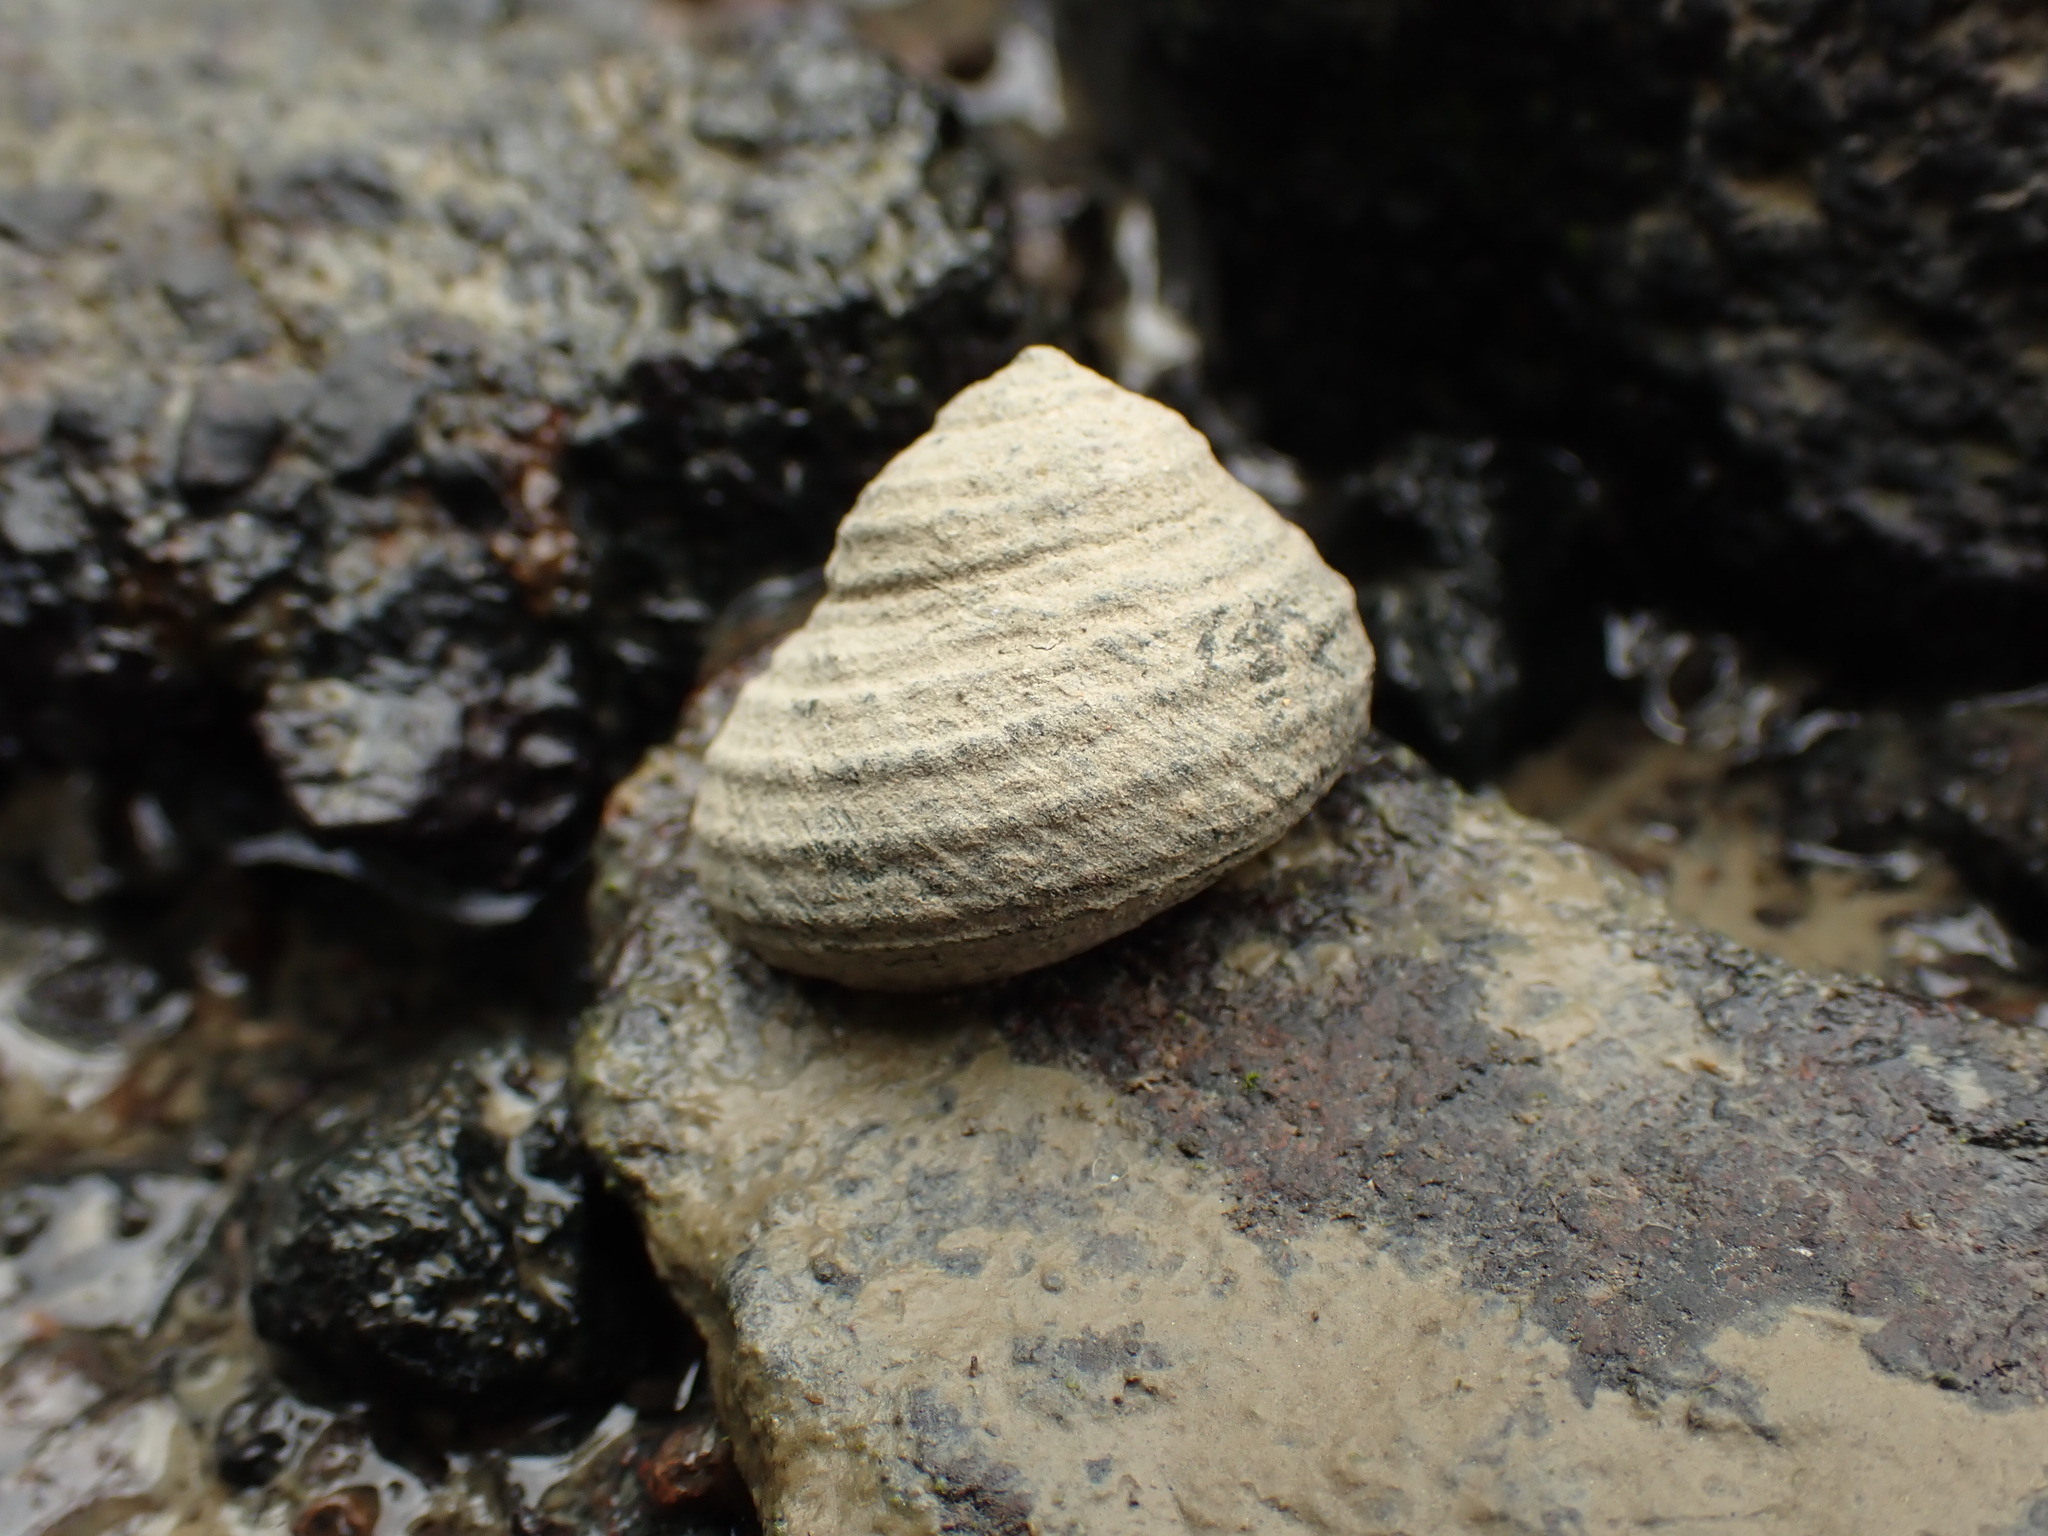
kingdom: Animalia
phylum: Mollusca
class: Gastropoda
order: Trochida
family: Trochidae
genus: Diloma
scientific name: Diloma subrostratum
